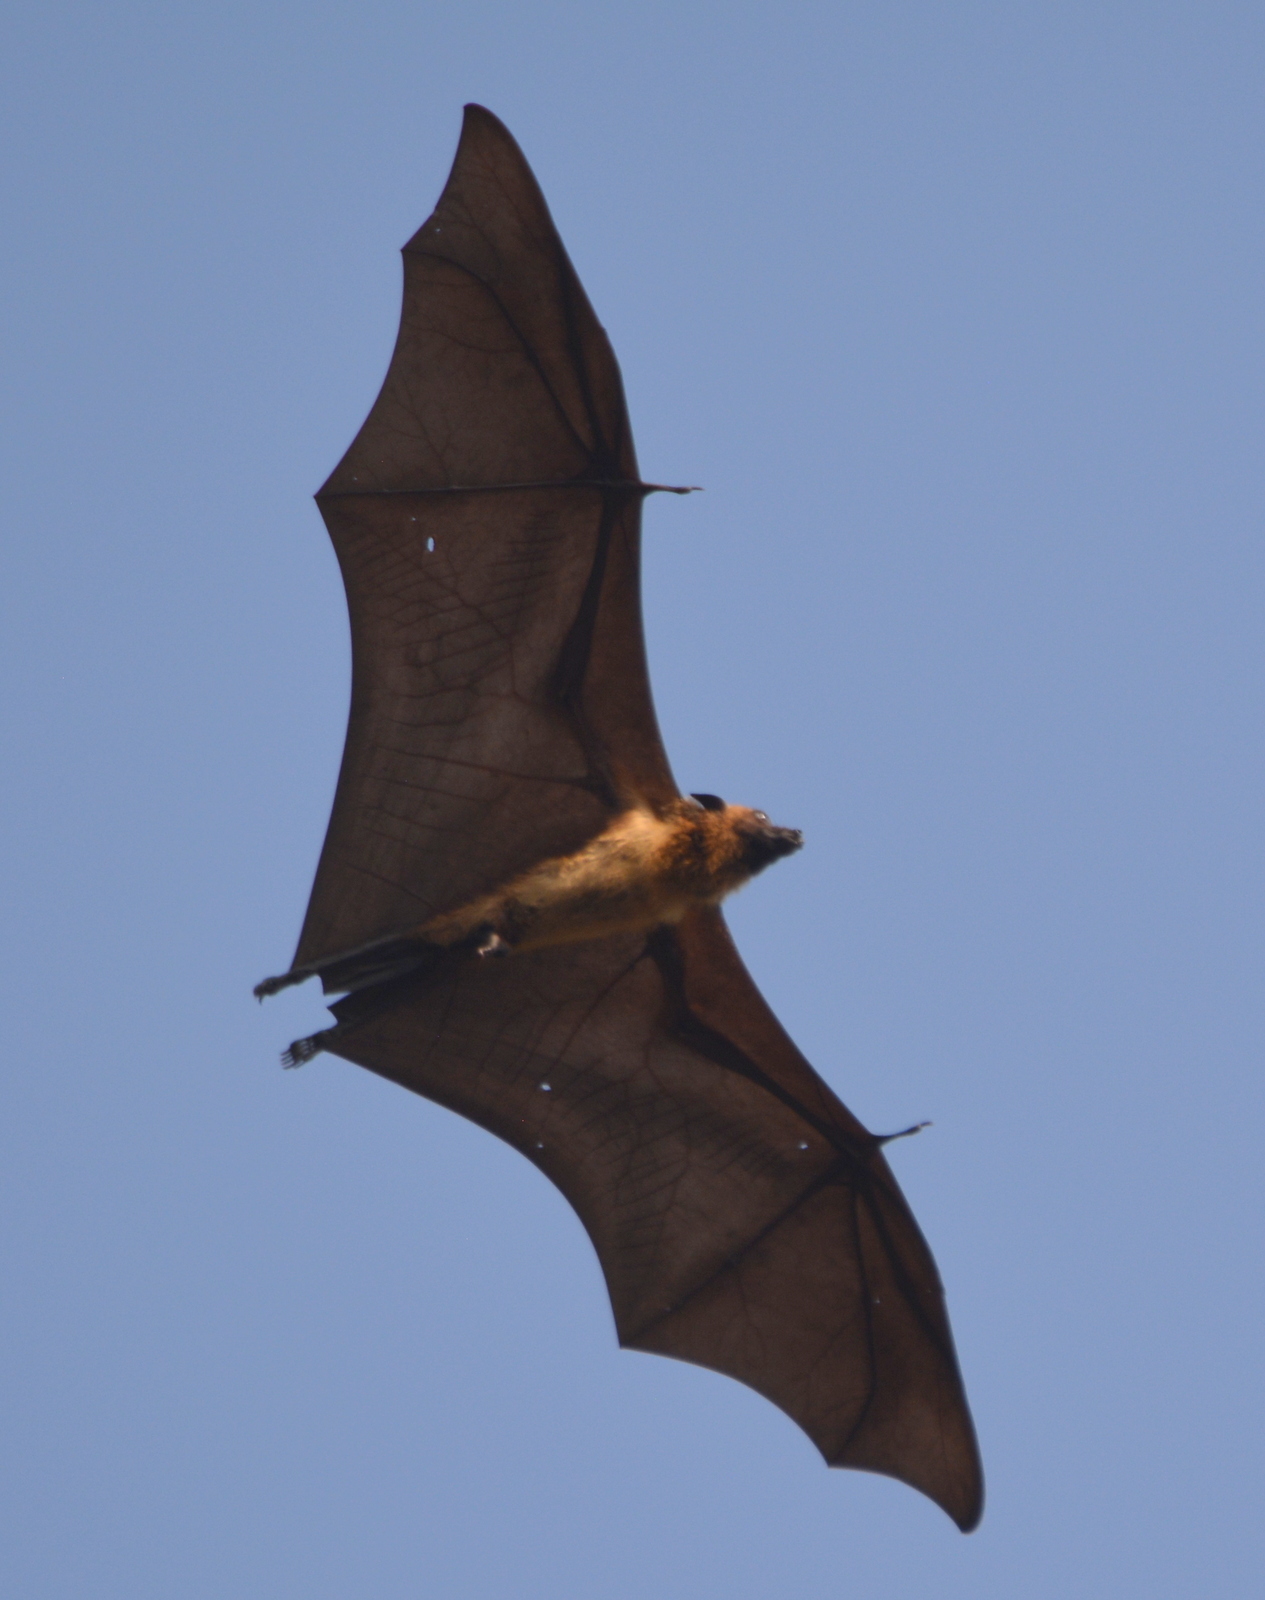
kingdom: Animalia
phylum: Chordata
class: Mammalia
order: Chiroptera
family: Pteropodidae
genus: Pteropus
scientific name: Pteropus vampyrus
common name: Large flying fox
